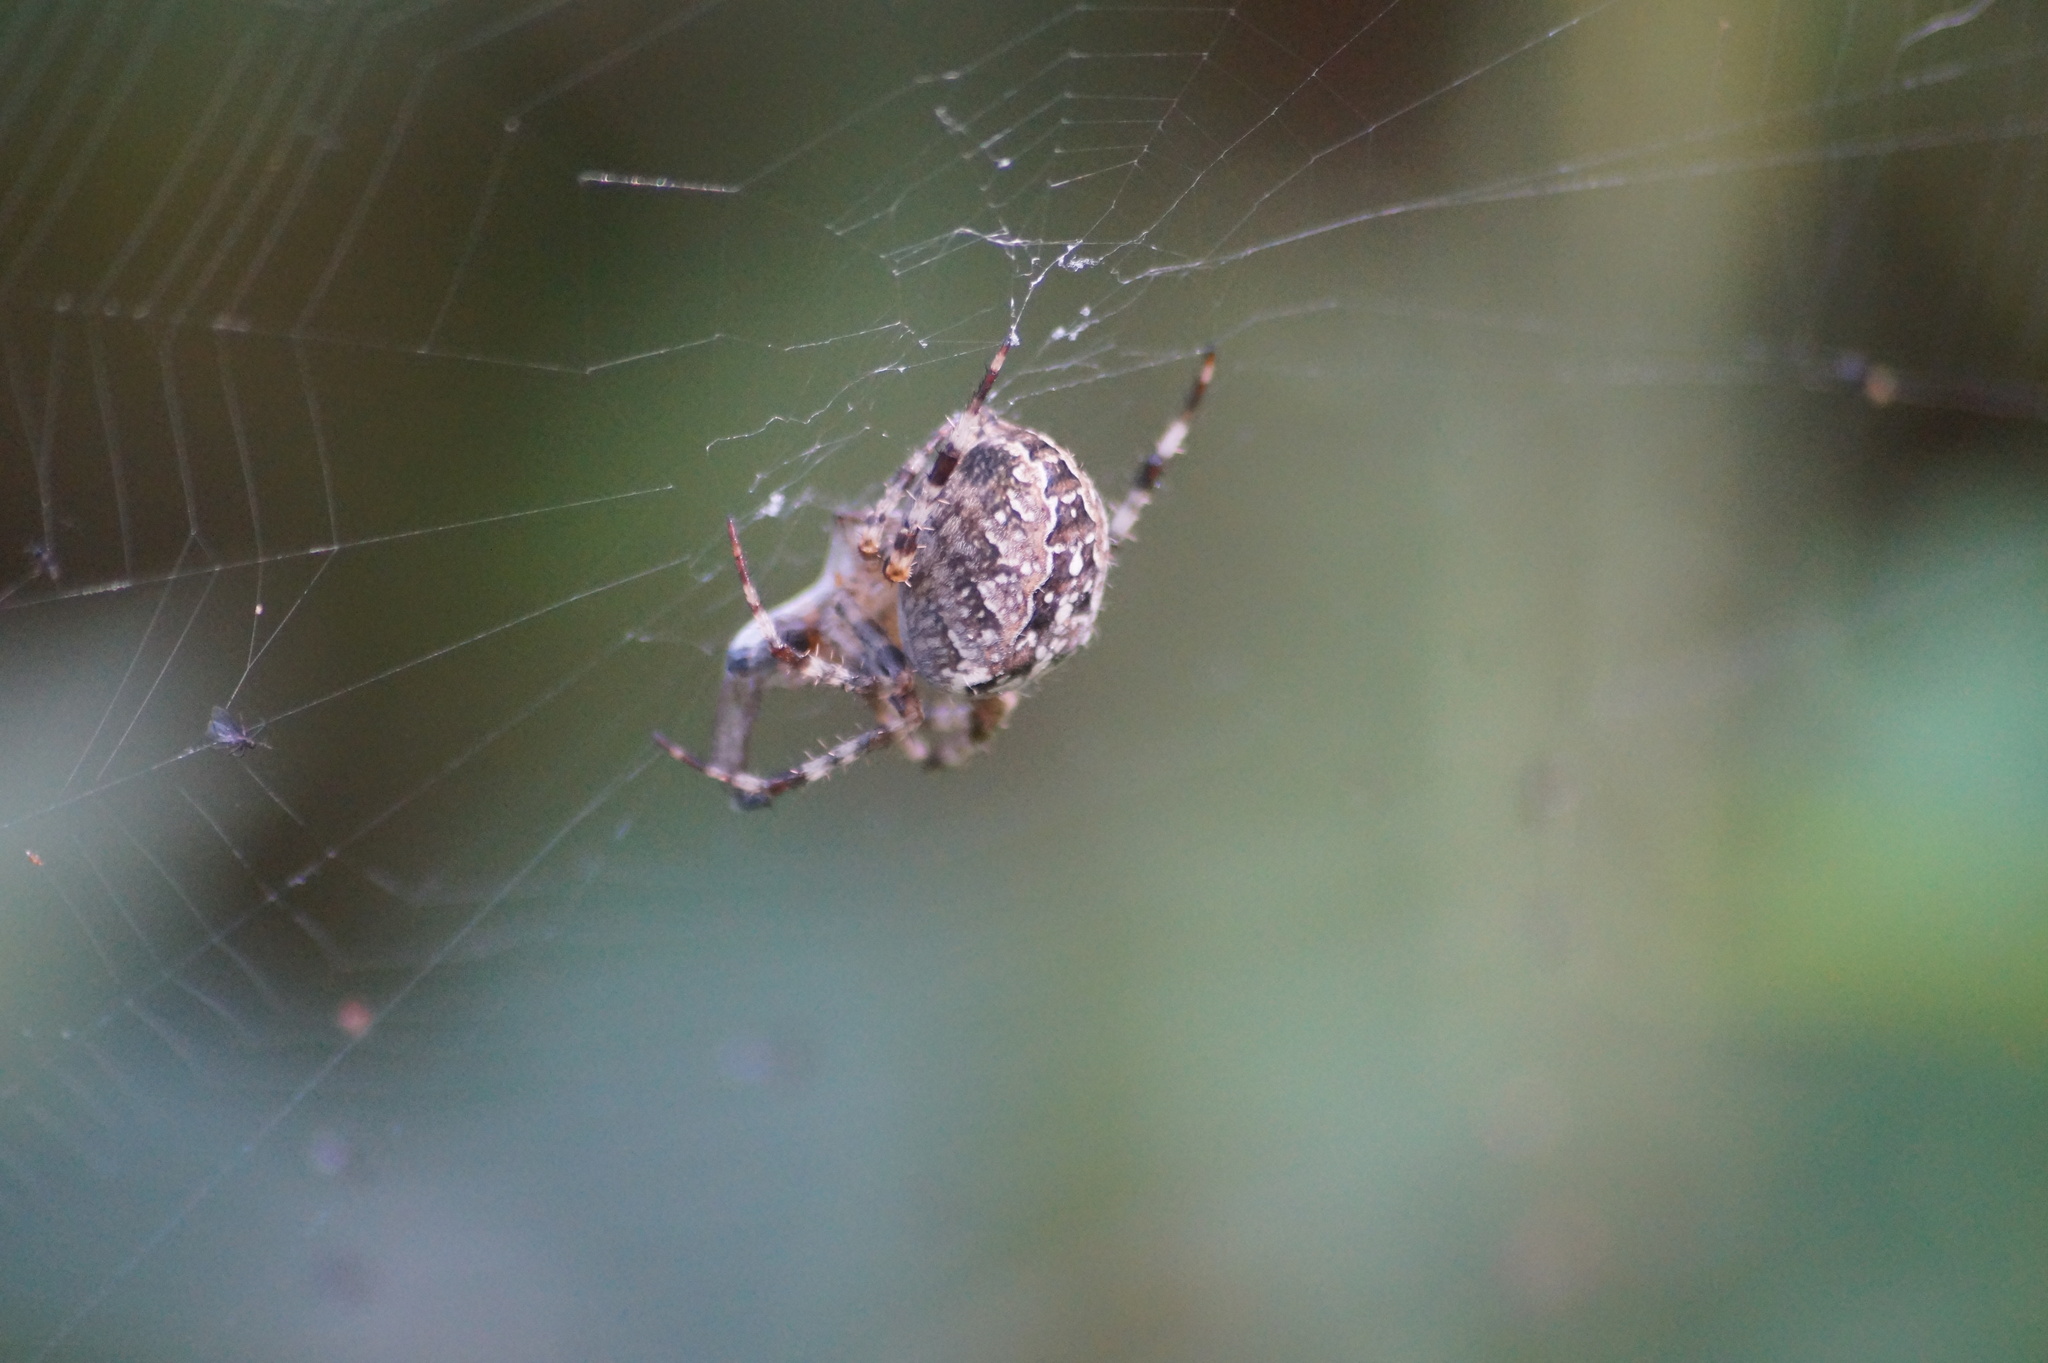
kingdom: Animalia
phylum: Arthropoda
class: Arachnida
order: Araneae
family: Araneidae
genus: Araneus
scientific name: Araneus diadematus
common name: Cross orbweaver
